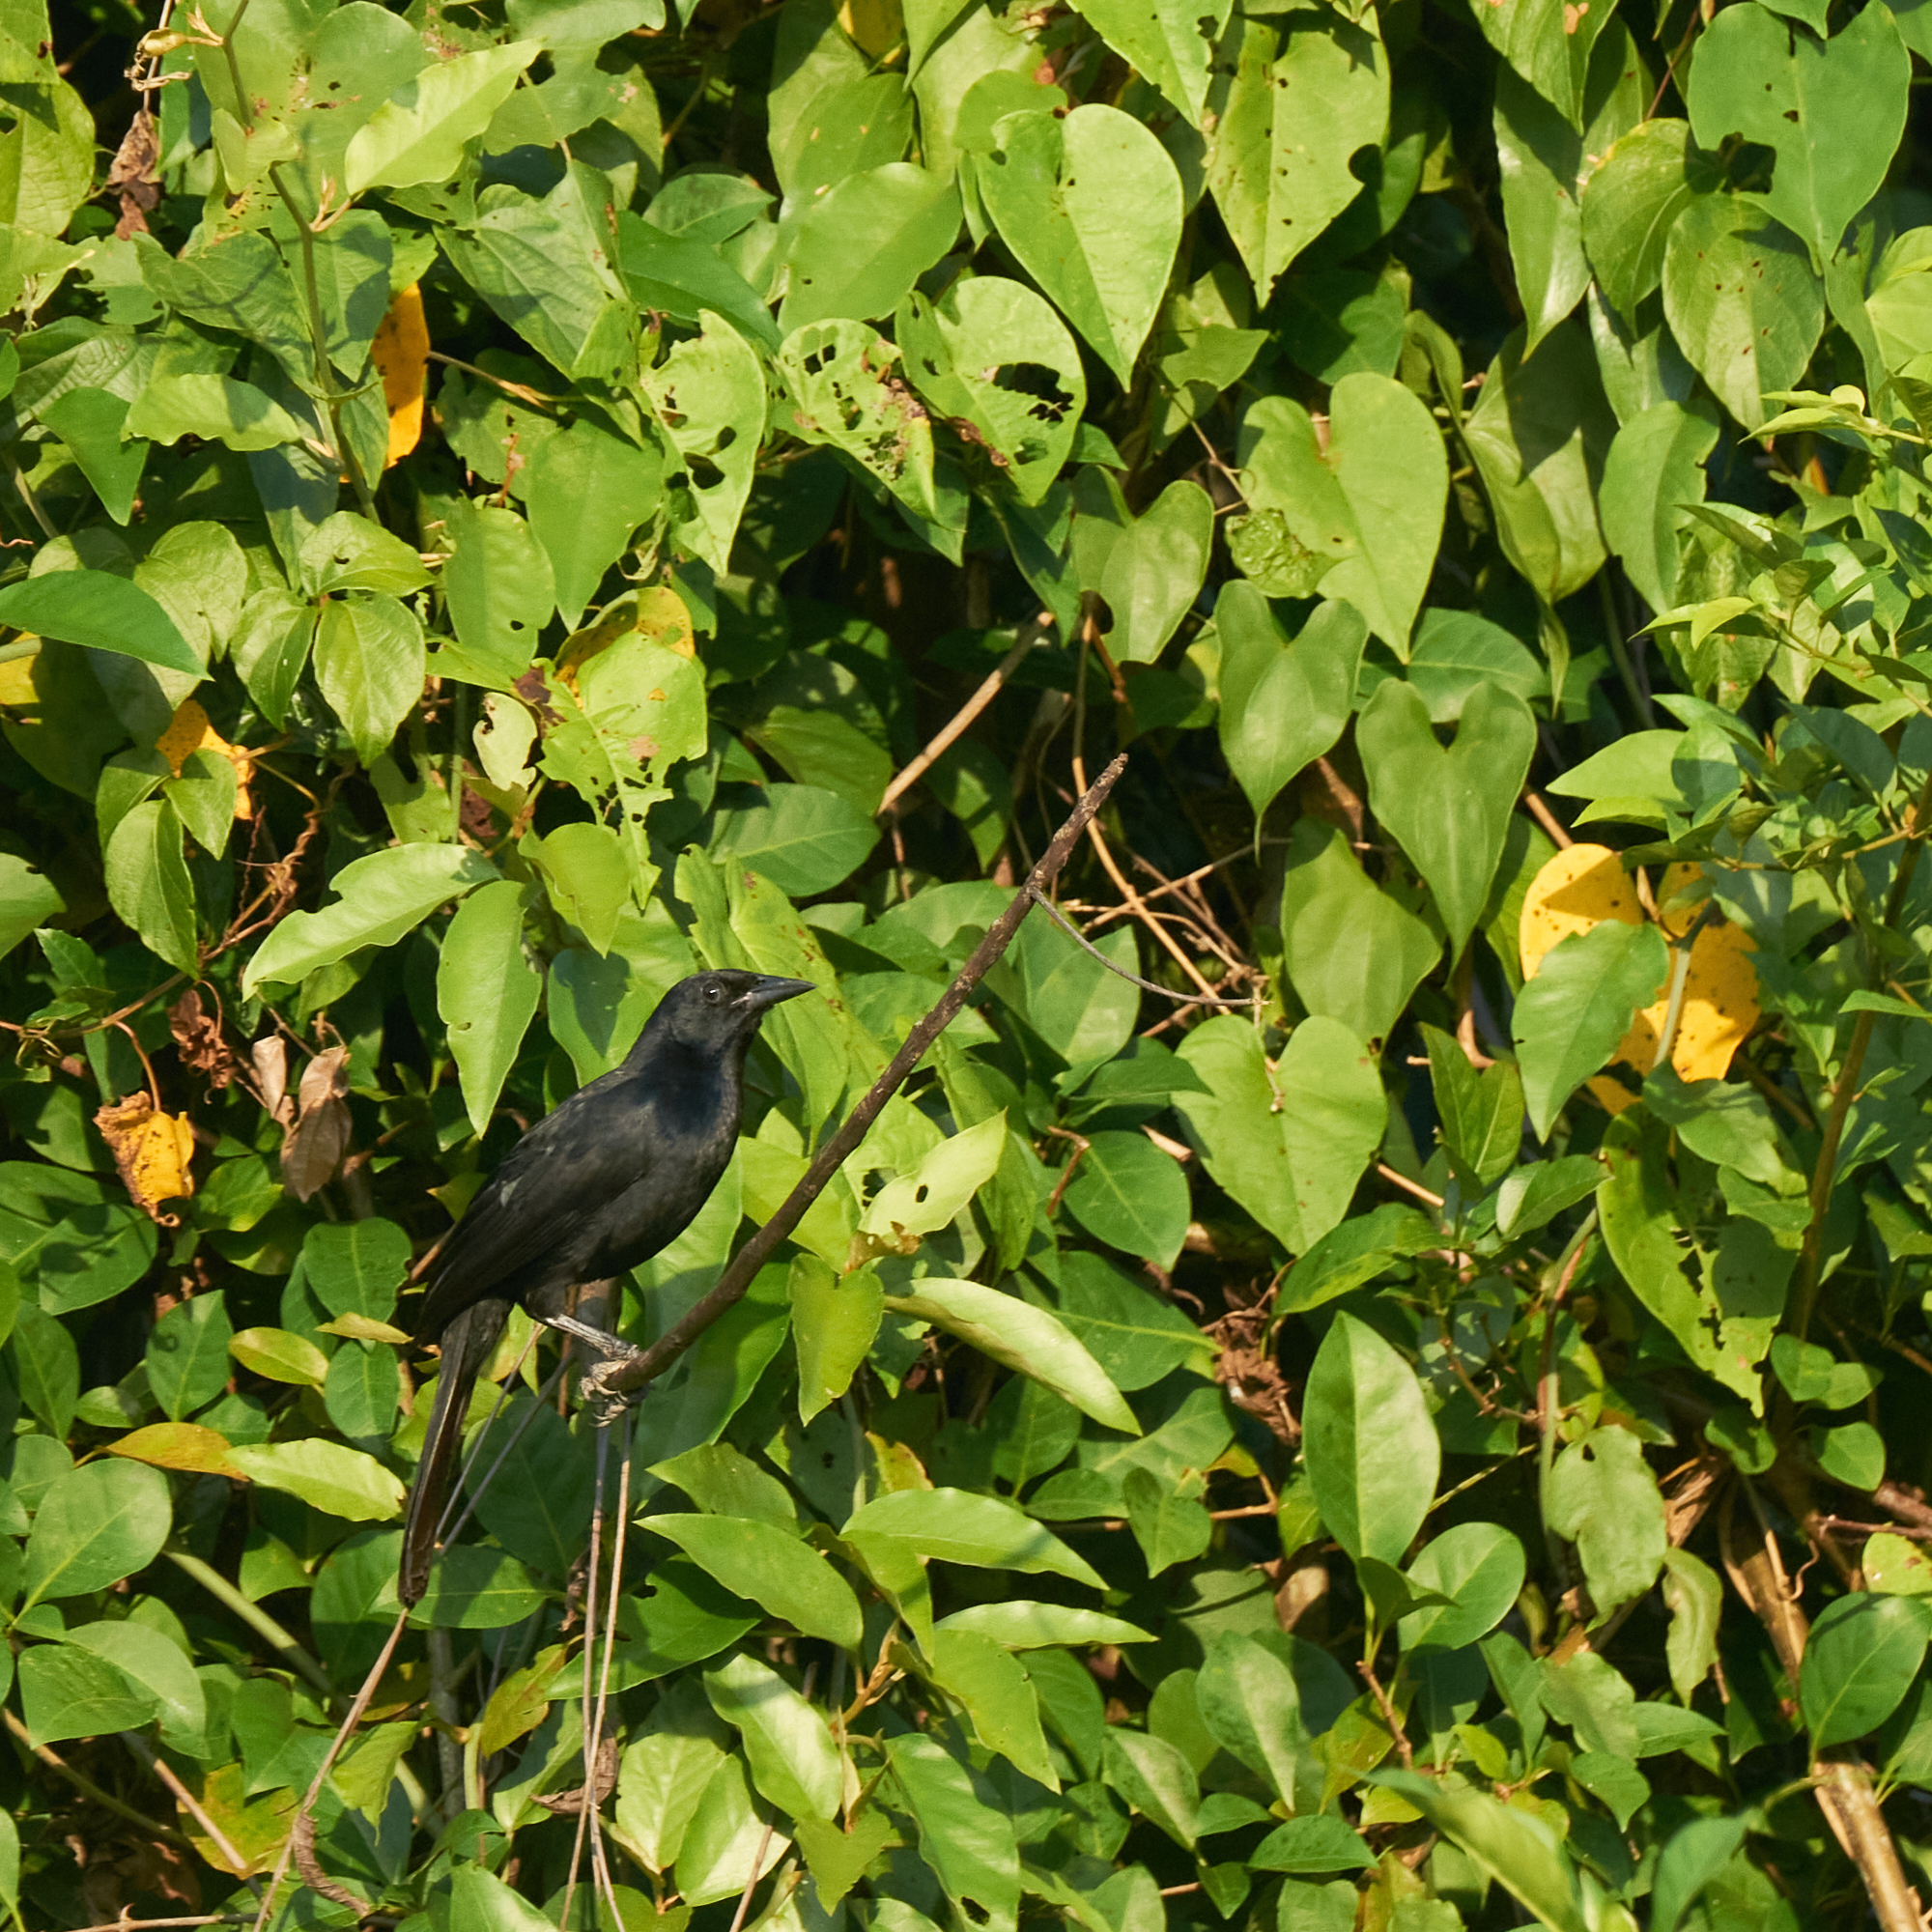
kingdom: Animalia
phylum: Chordata
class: Aves
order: Passeriformes
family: Icteridae
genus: Dives
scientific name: Dives dives
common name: Melodious blackbird
